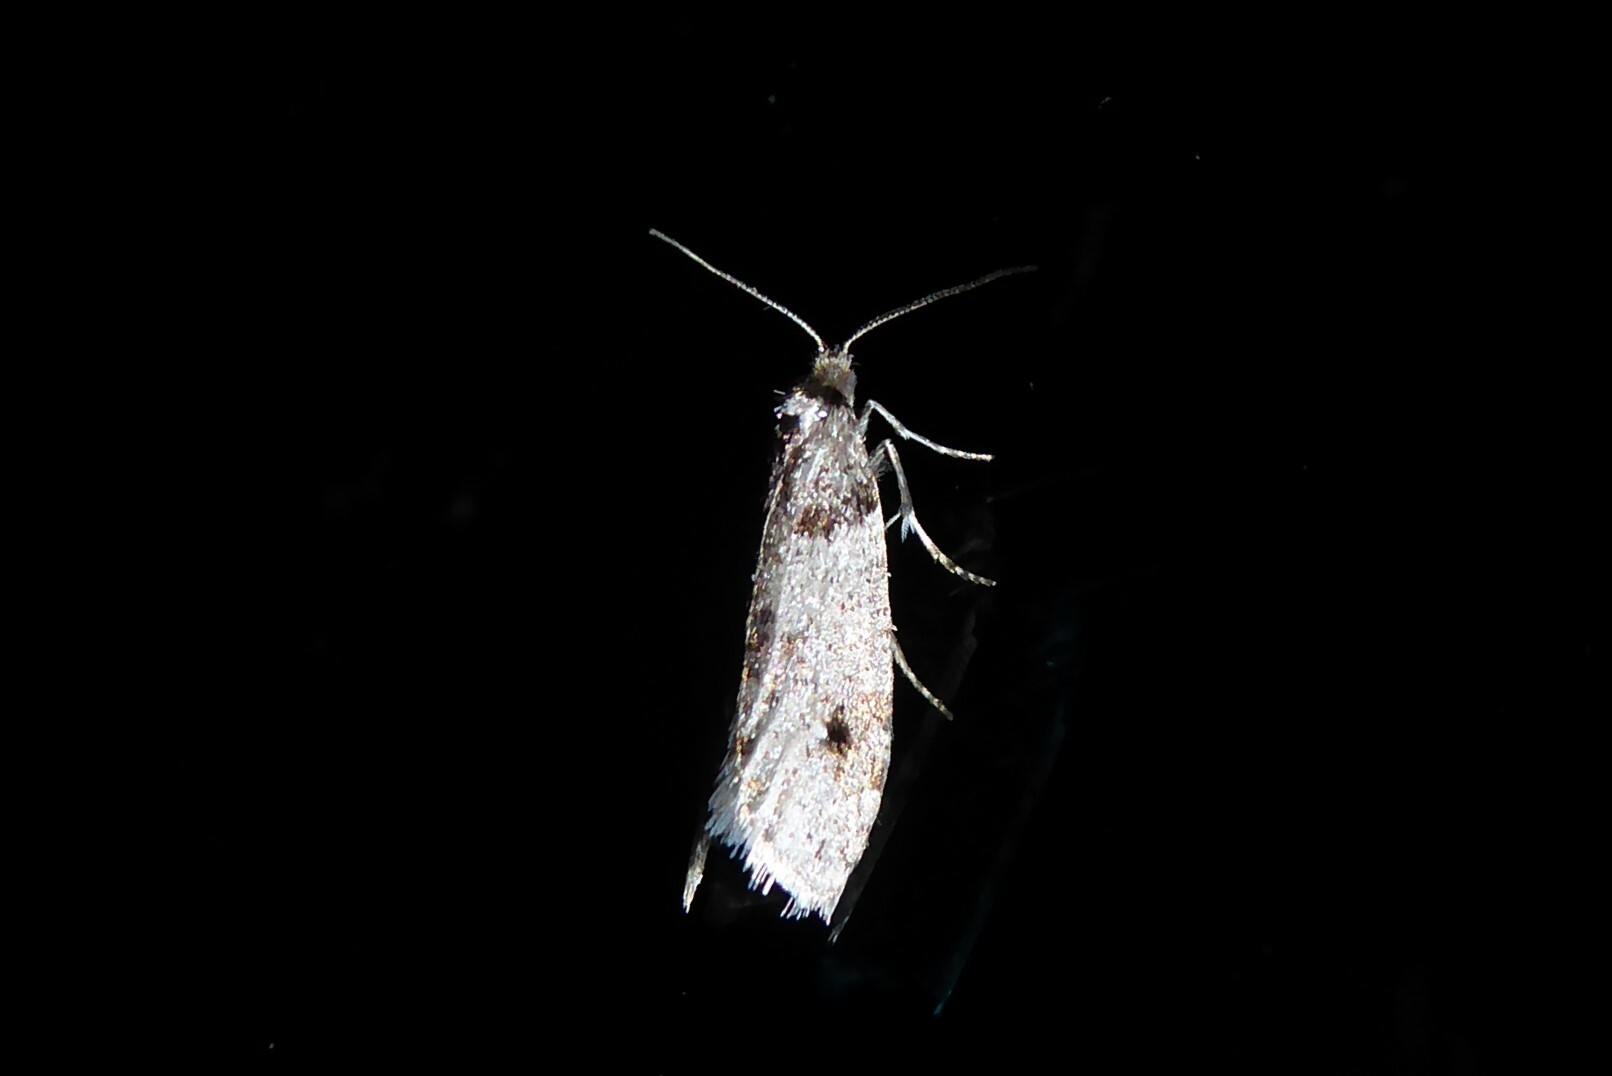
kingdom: Animalia
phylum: Arthropoda
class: Insecta
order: Lepidoptera
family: Psychidae
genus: Lepidoscia
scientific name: Lepidoscia heliochares
